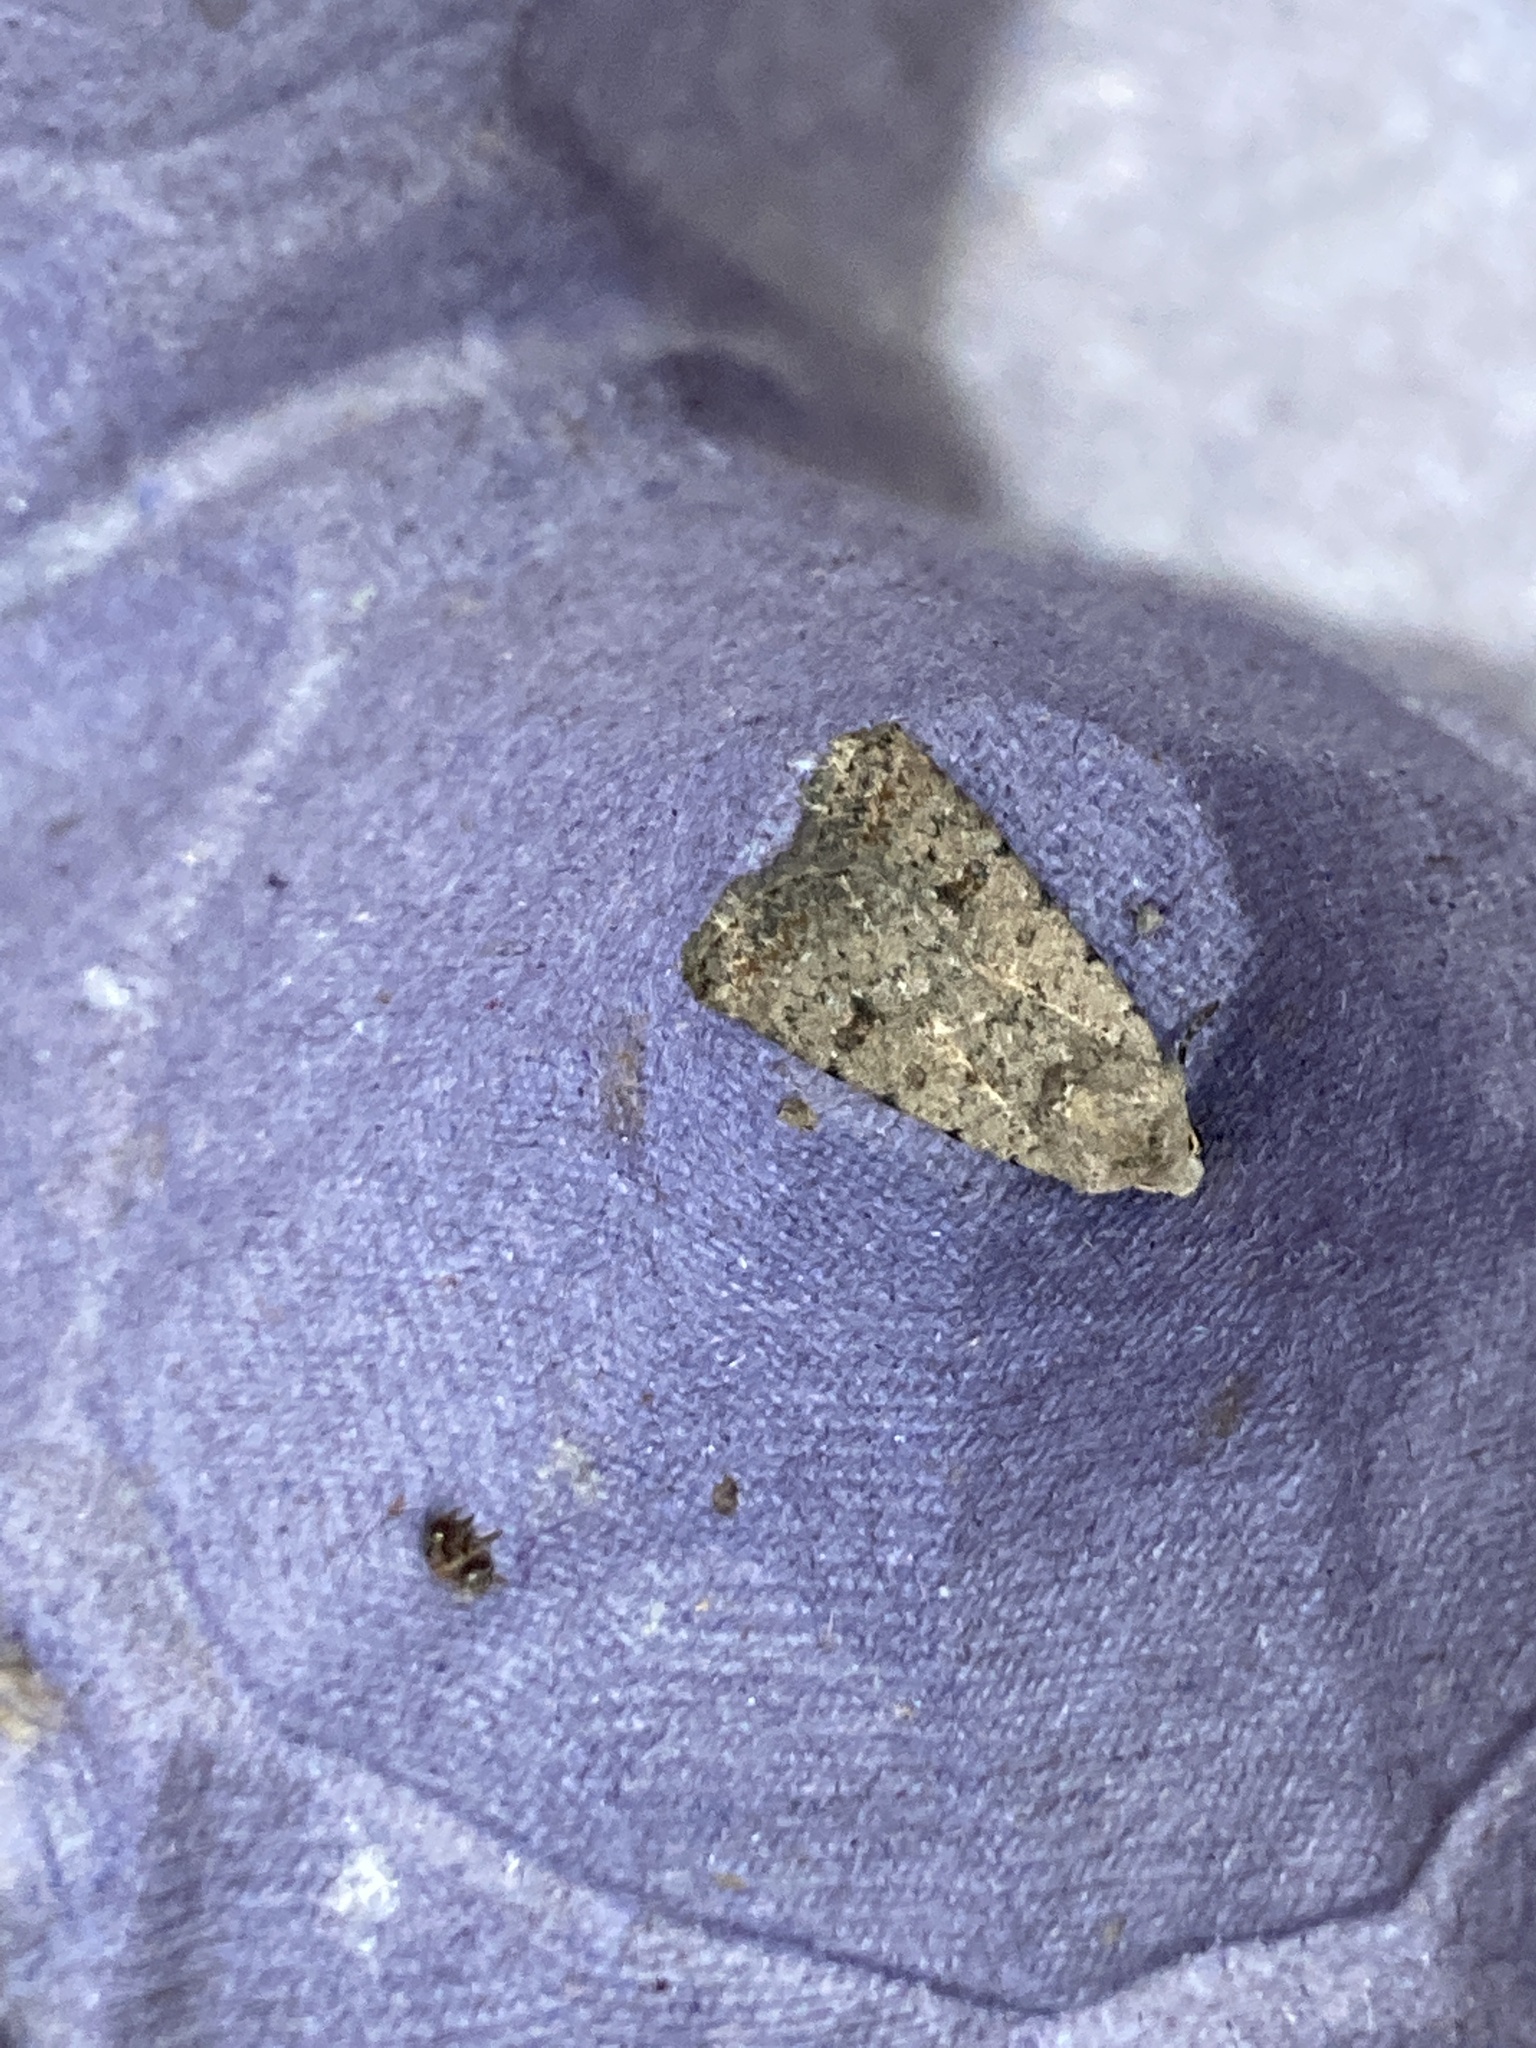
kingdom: Animalia
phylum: Arthropoda
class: Insecta
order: Lepidoptera
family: Noctuidae
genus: Caradrina
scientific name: Caradrina clavipalpis
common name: Pale mottled willow
